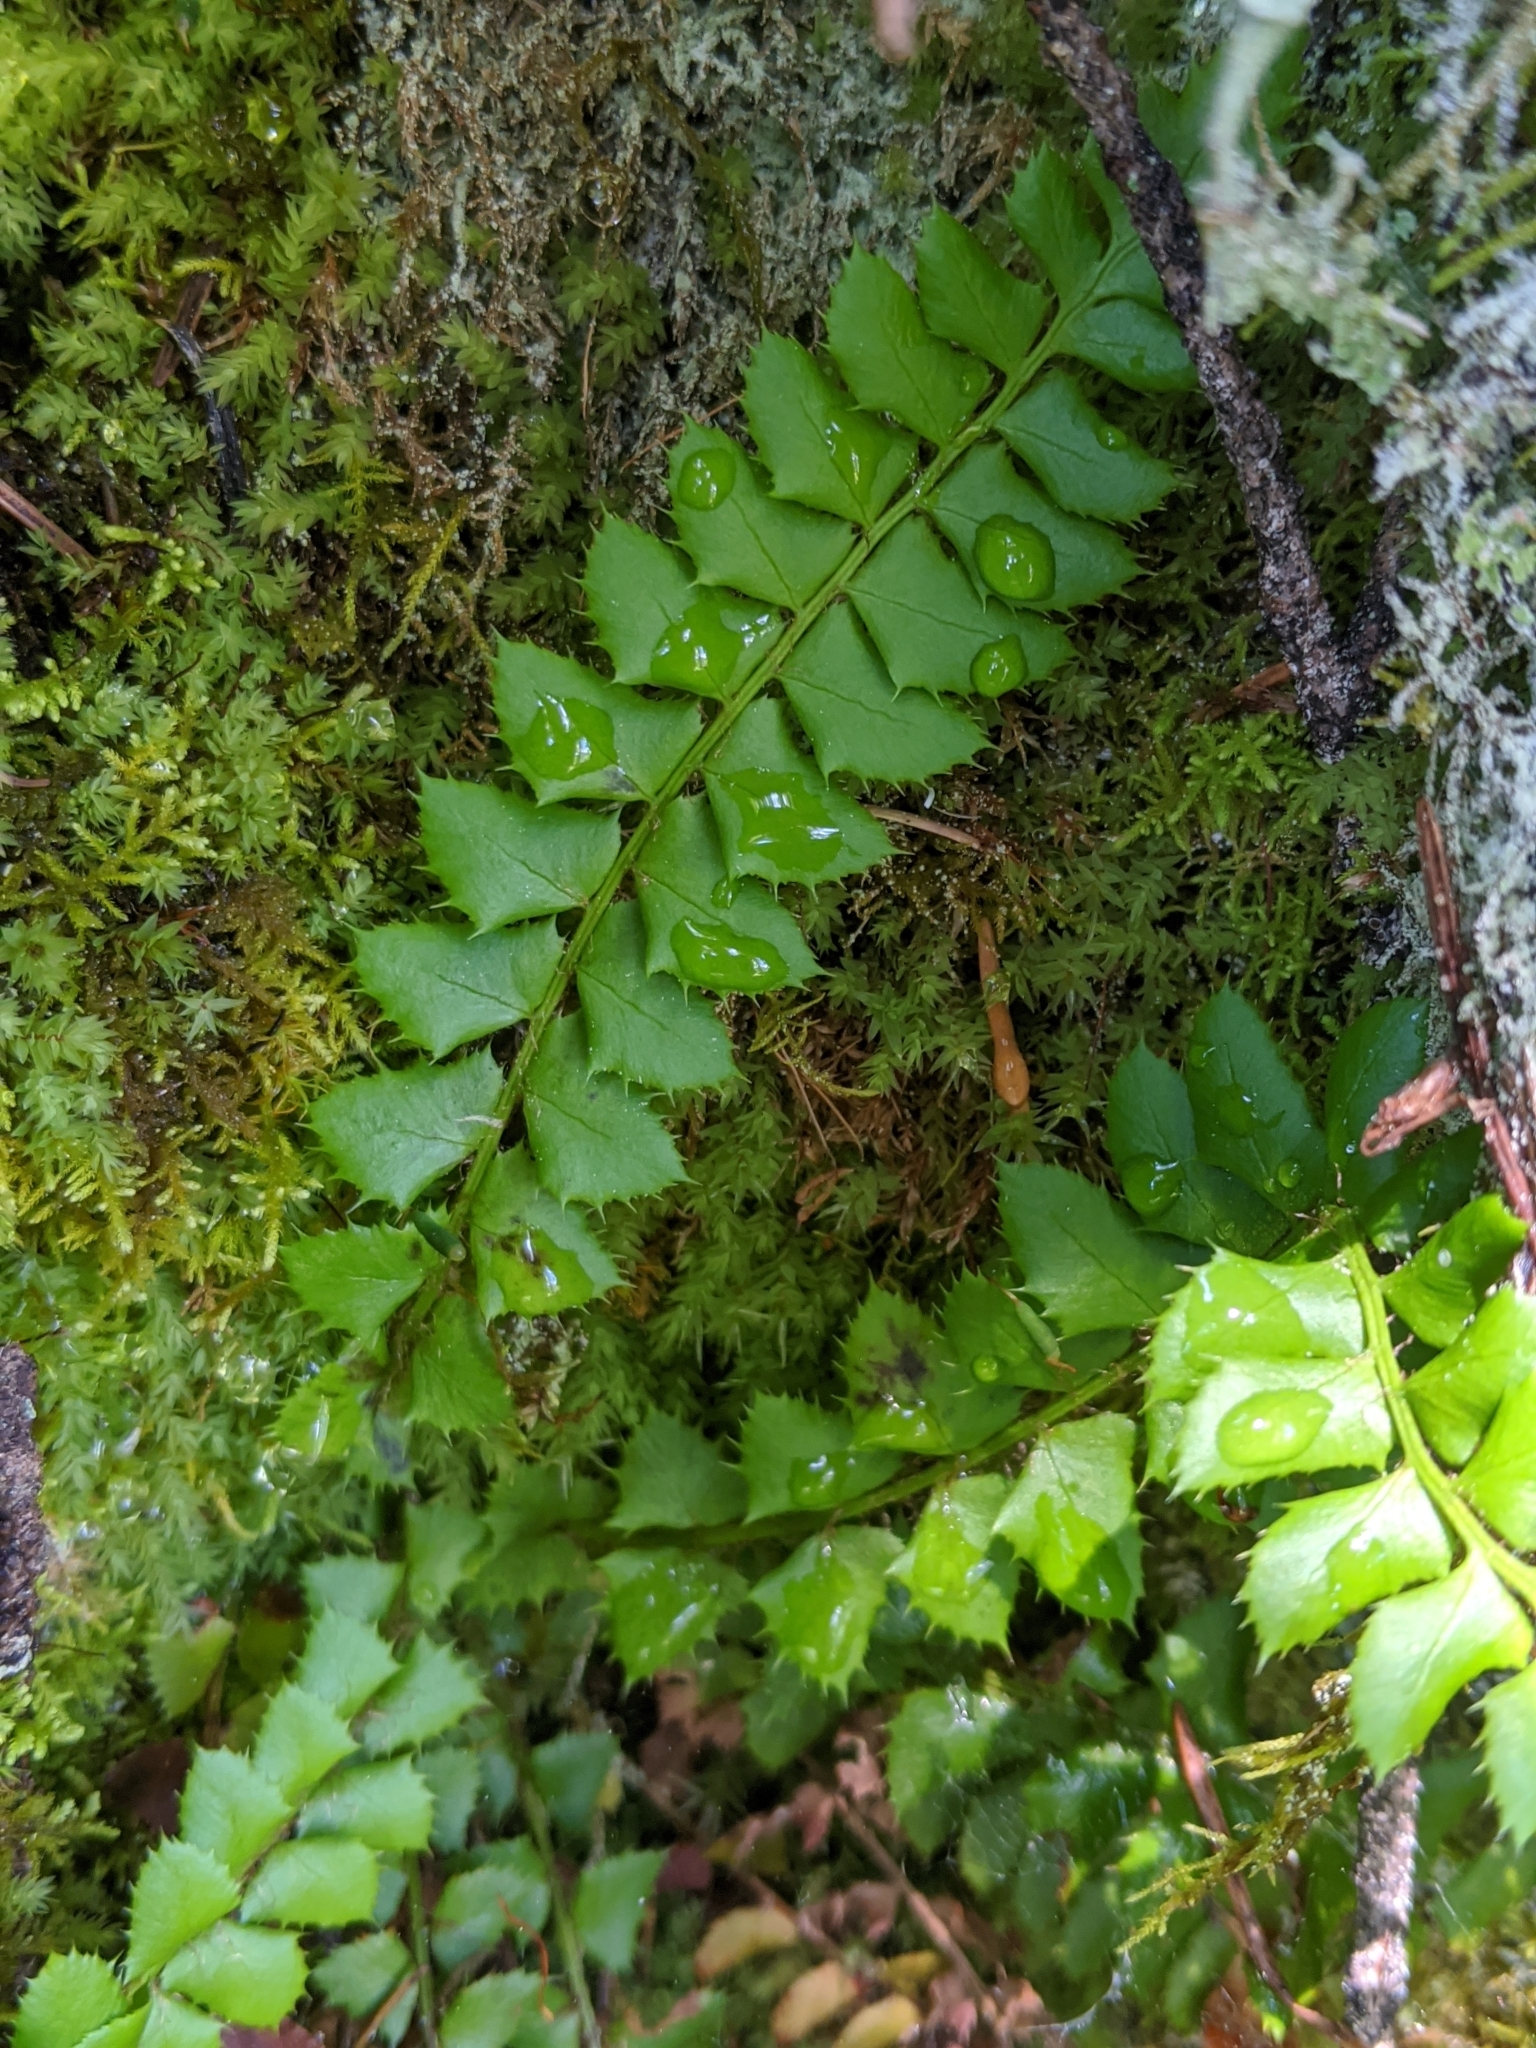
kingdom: Plantae
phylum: Tracheophyta
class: Polypodiopsida
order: Polypodiales
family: Dryopteridaceae
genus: Polystichum
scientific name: Polystichum lonchitis
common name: Holly fern
